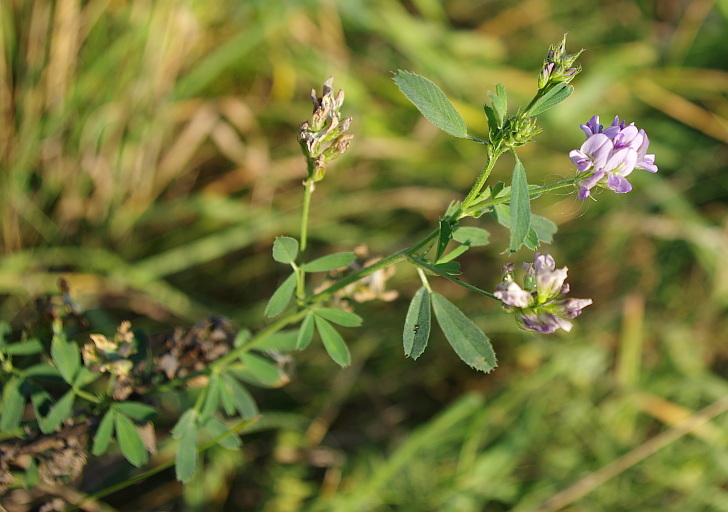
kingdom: Plantae
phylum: Tracheophyta
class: Magnoliopsida
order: Fabales
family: Fabaceae
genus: Medicago
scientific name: Medicago sativa
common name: Alfalfa
